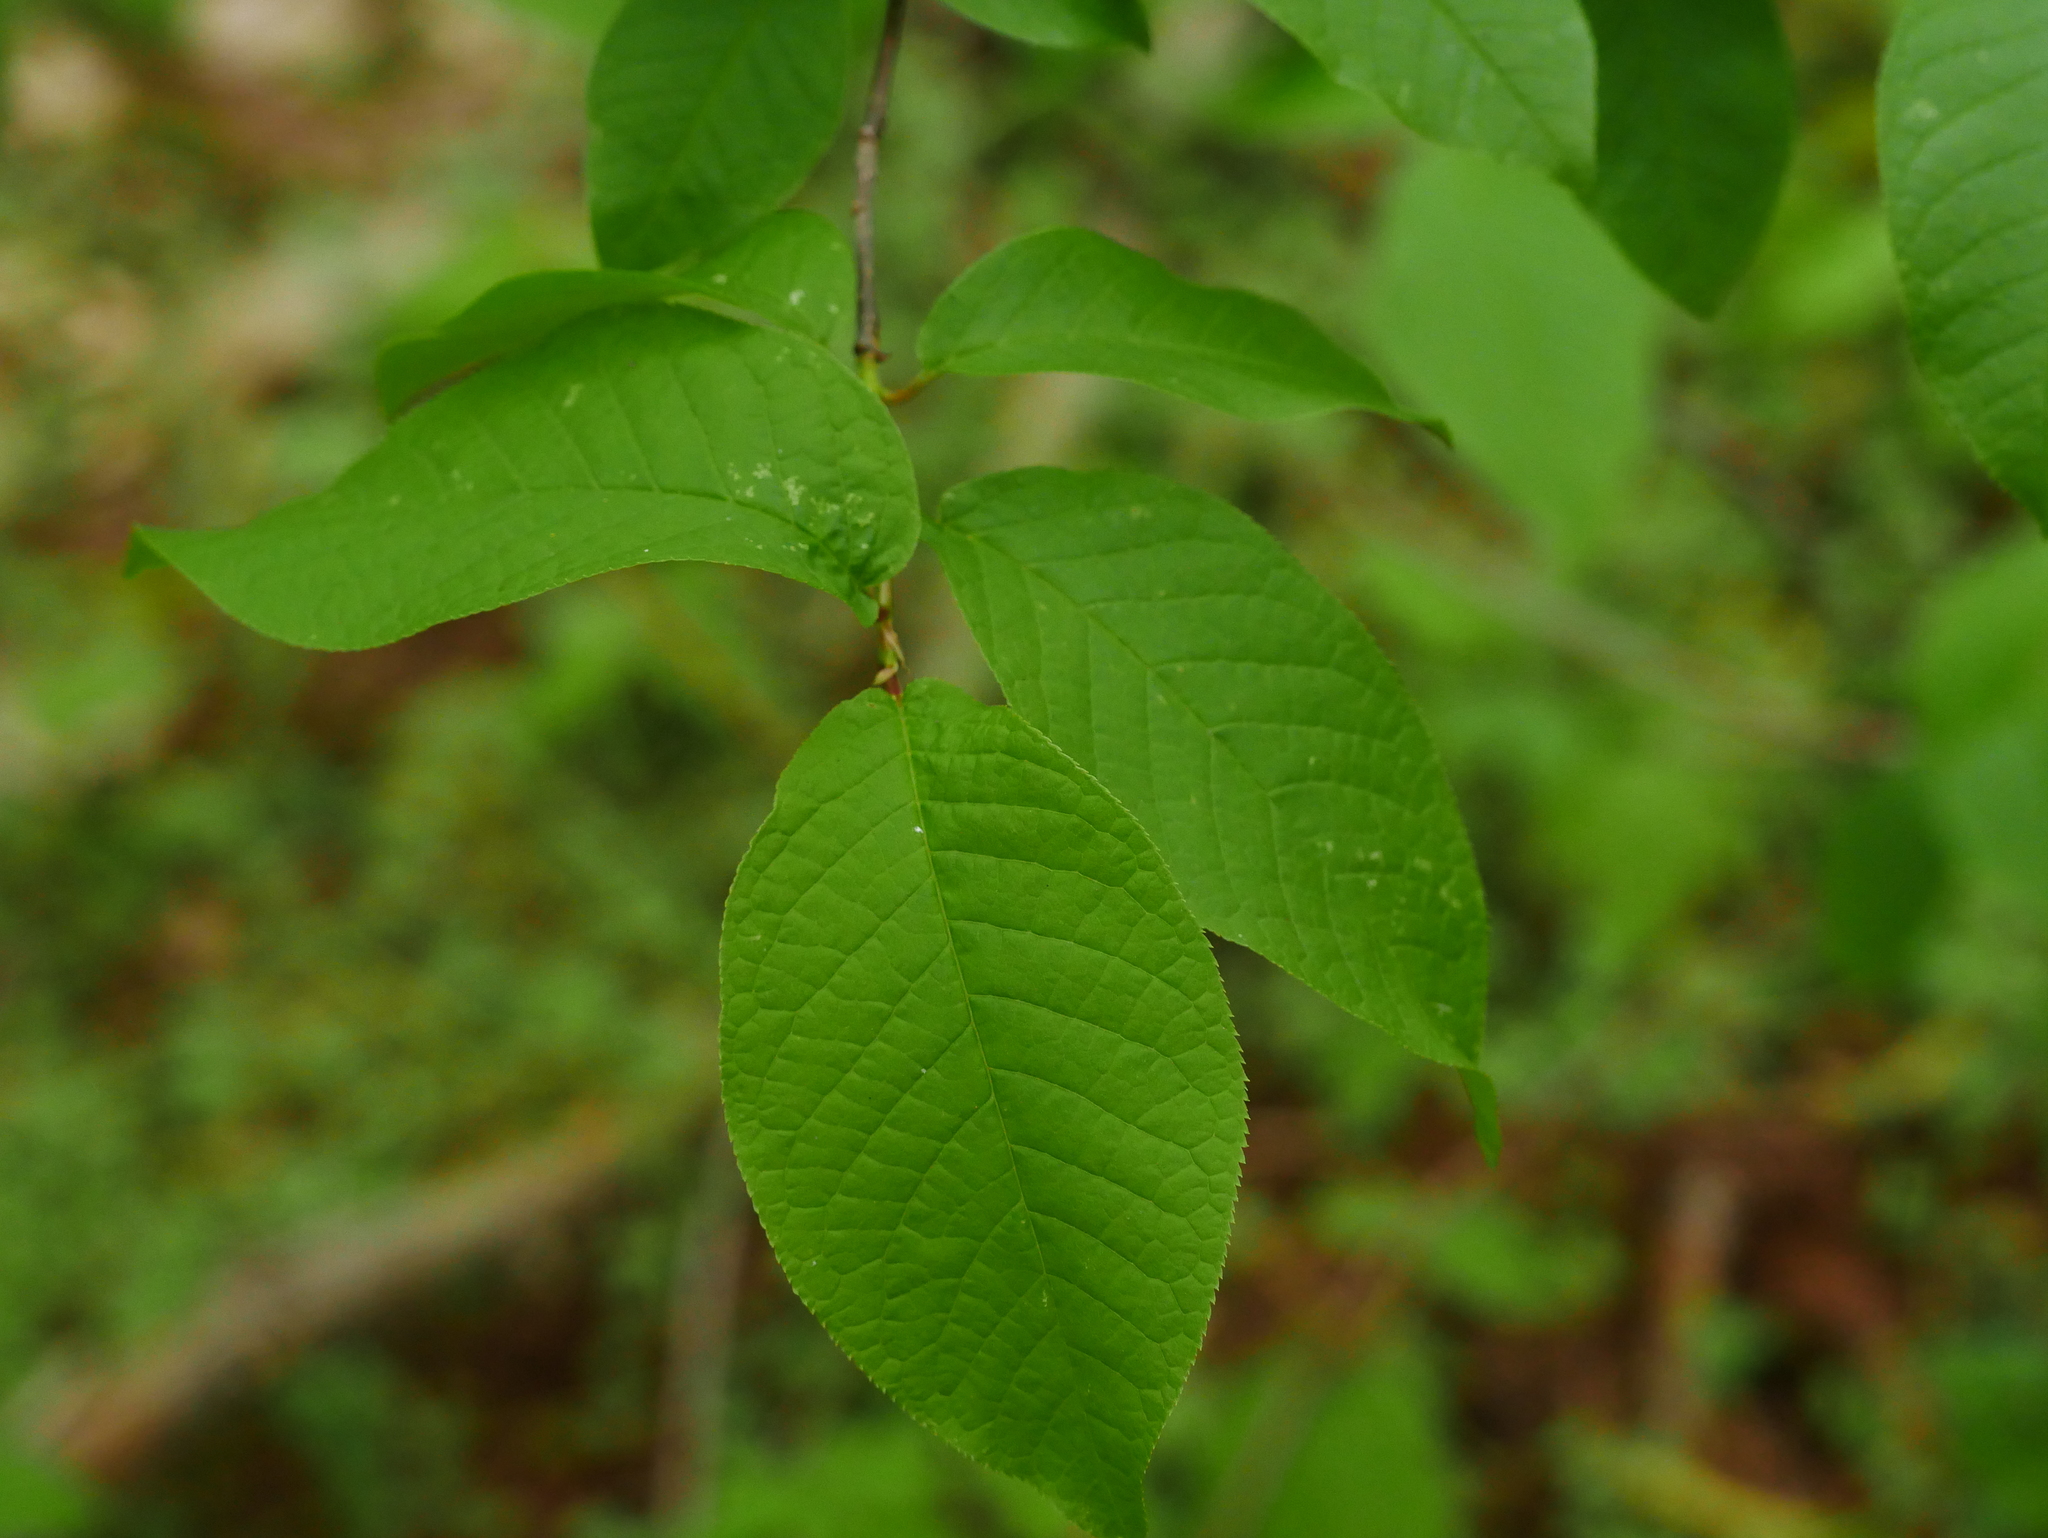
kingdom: Plantae
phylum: Tracheophyta
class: Magnoliopsida
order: Rosales
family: Rosaceae
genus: Prunus
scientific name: Prunus padus
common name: Bird cherry
